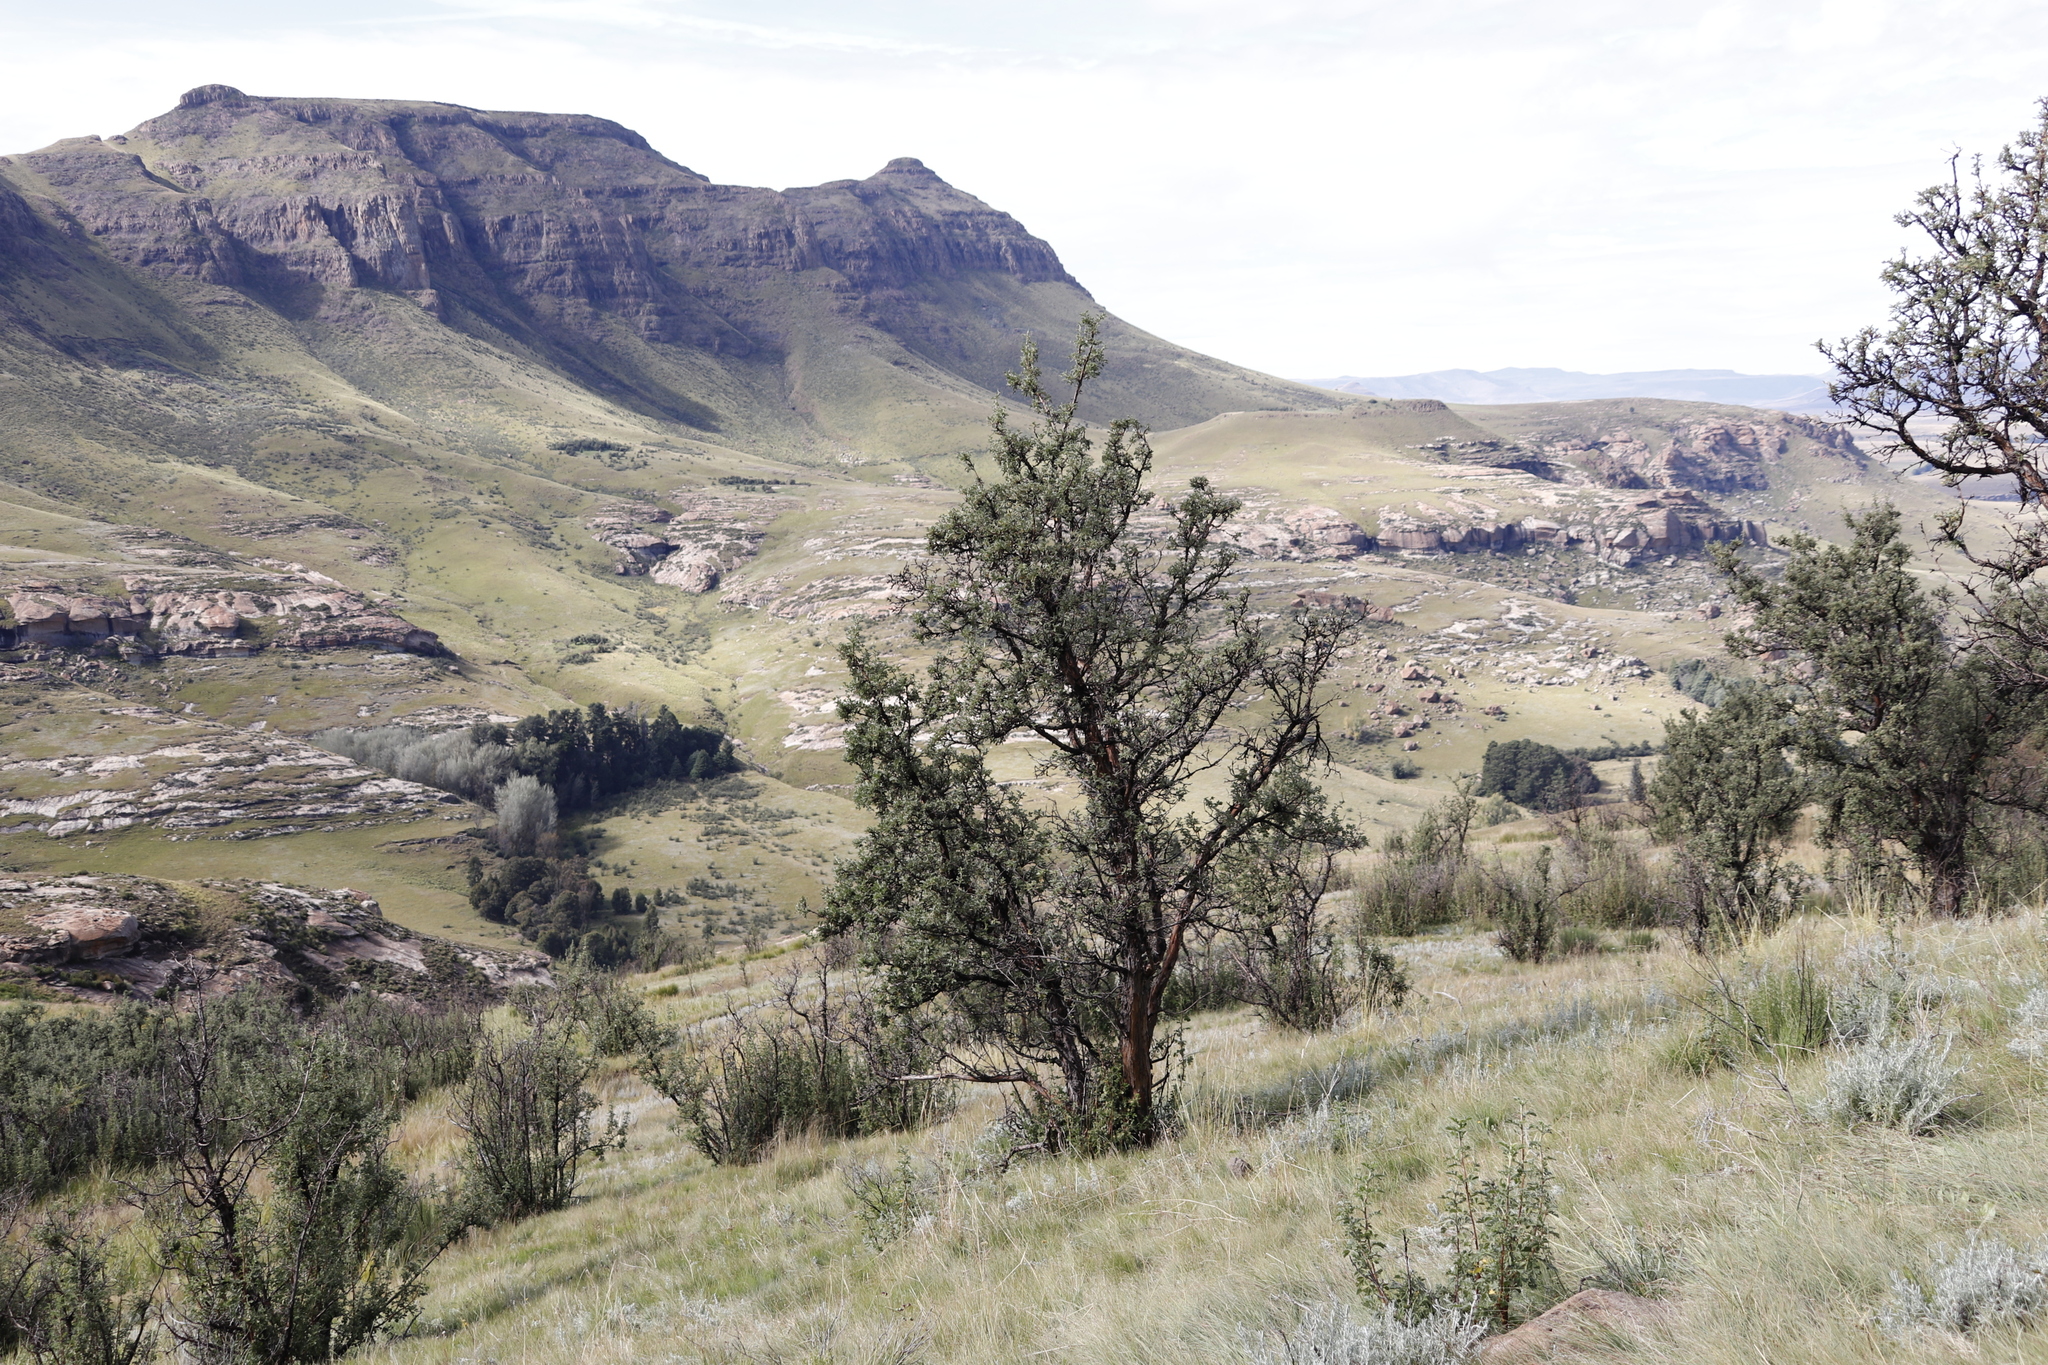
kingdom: Plantae
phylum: Tracheophyta
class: Magnoliopsida
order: Rosales
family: Rosaceae
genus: Leucosidea
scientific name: Leucosidea sericea
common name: Oldwood
